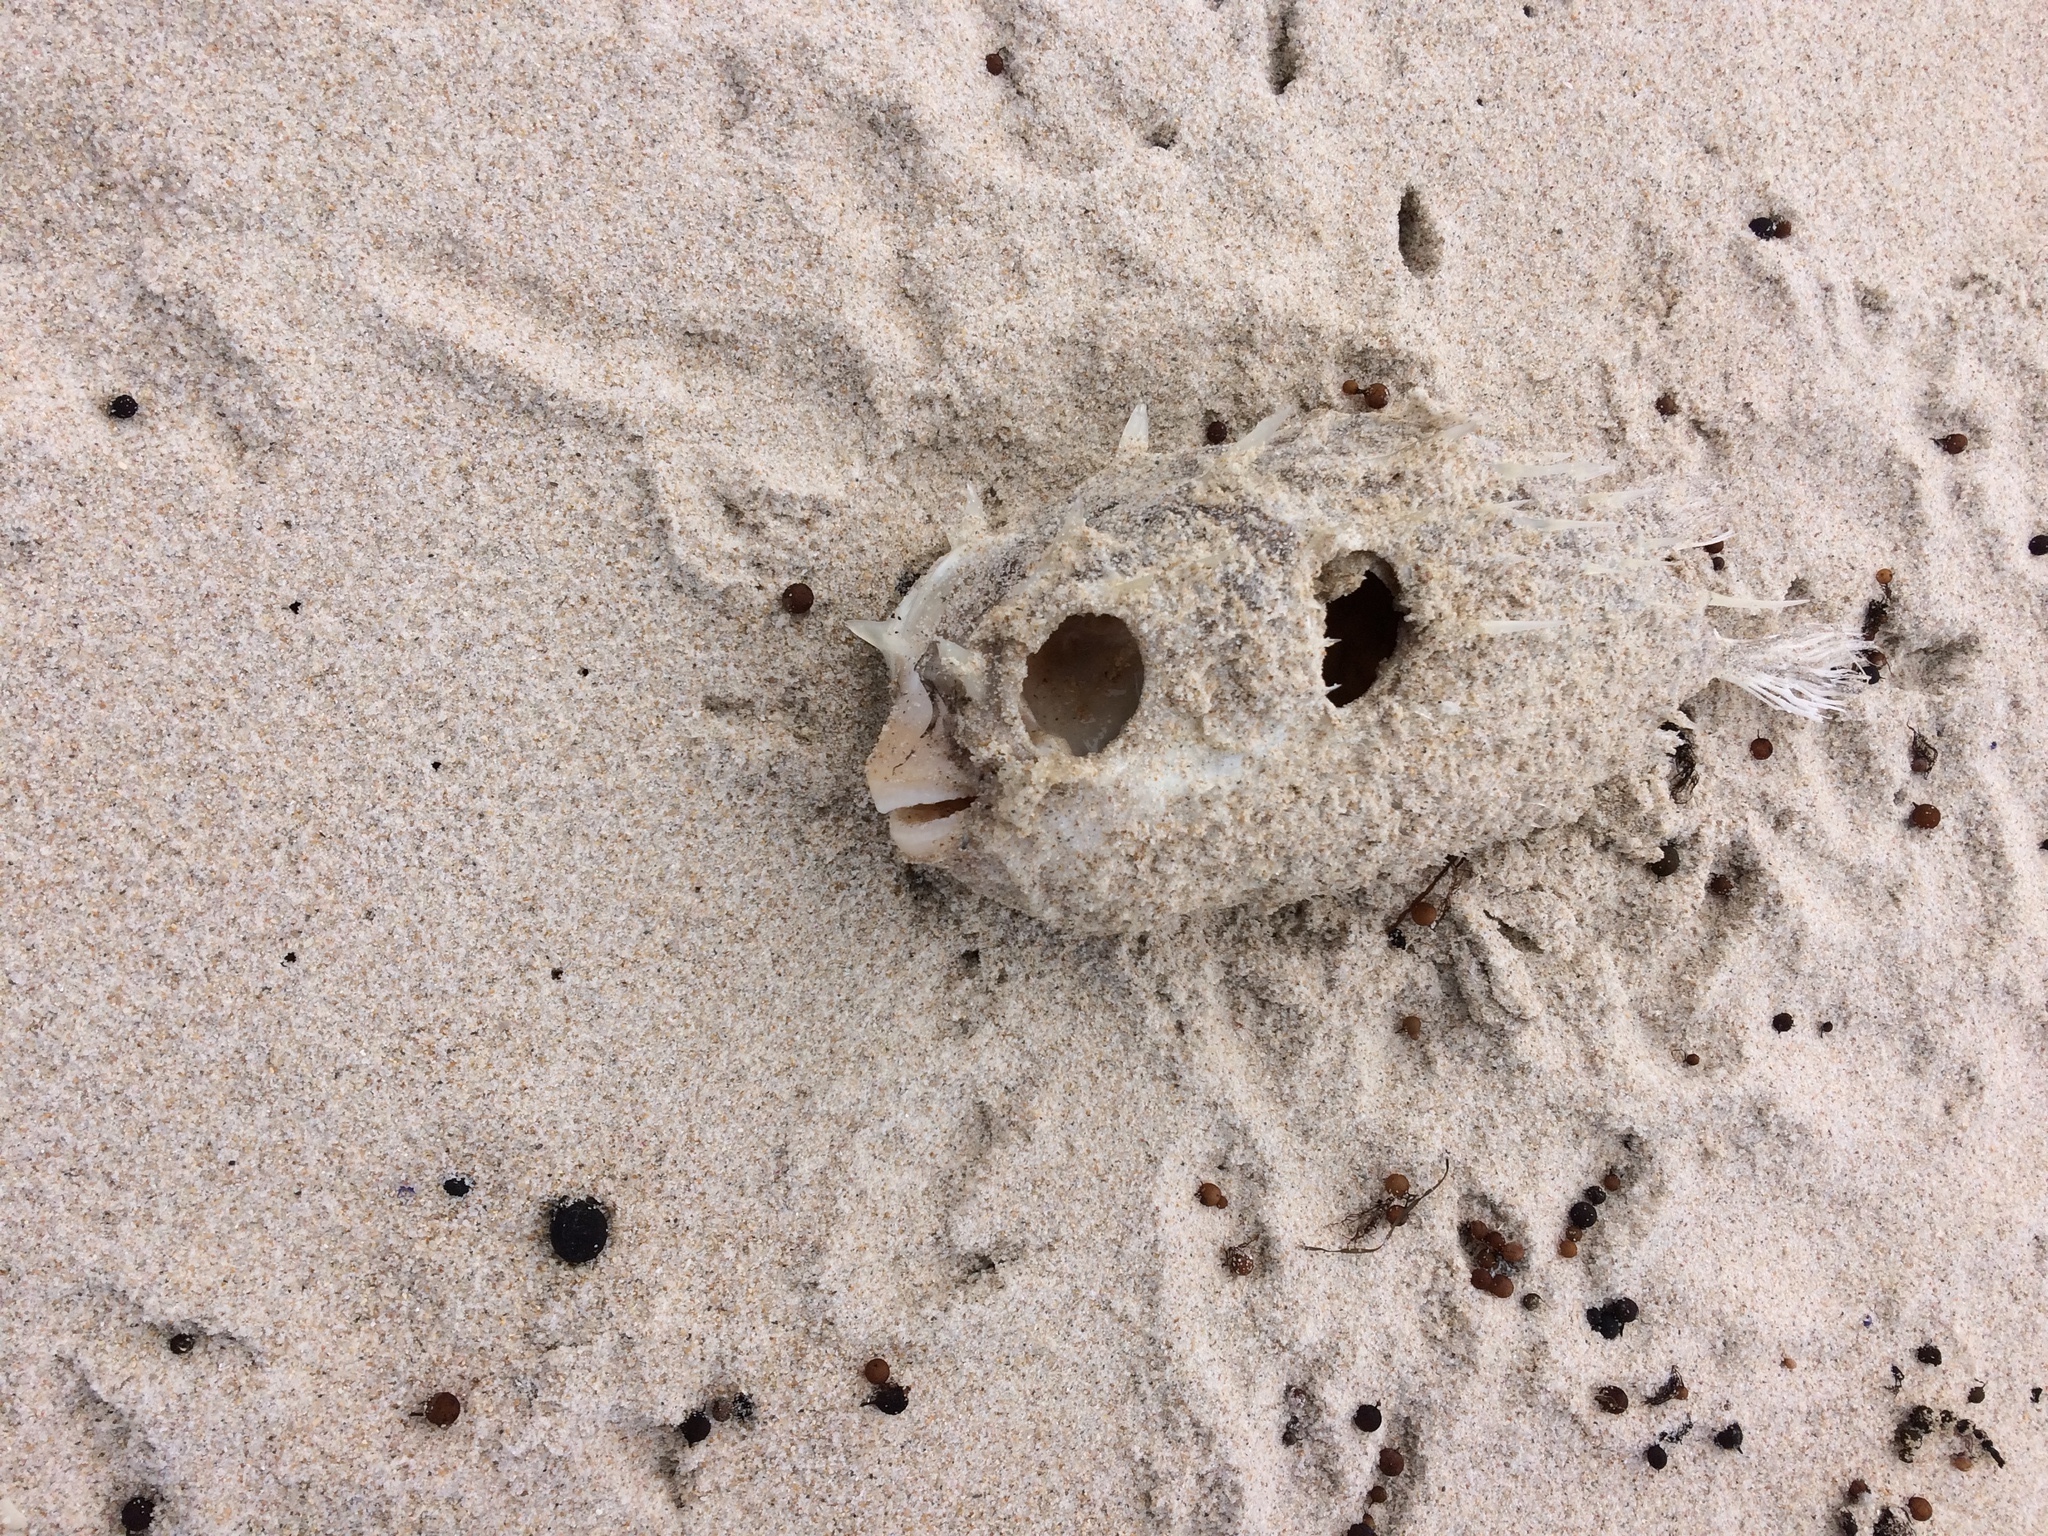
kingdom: Animalia
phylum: Chordata
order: Tetraodontiformes
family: Diodontidae
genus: Allomycterus
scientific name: Allomycterus pilatus
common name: No common name
